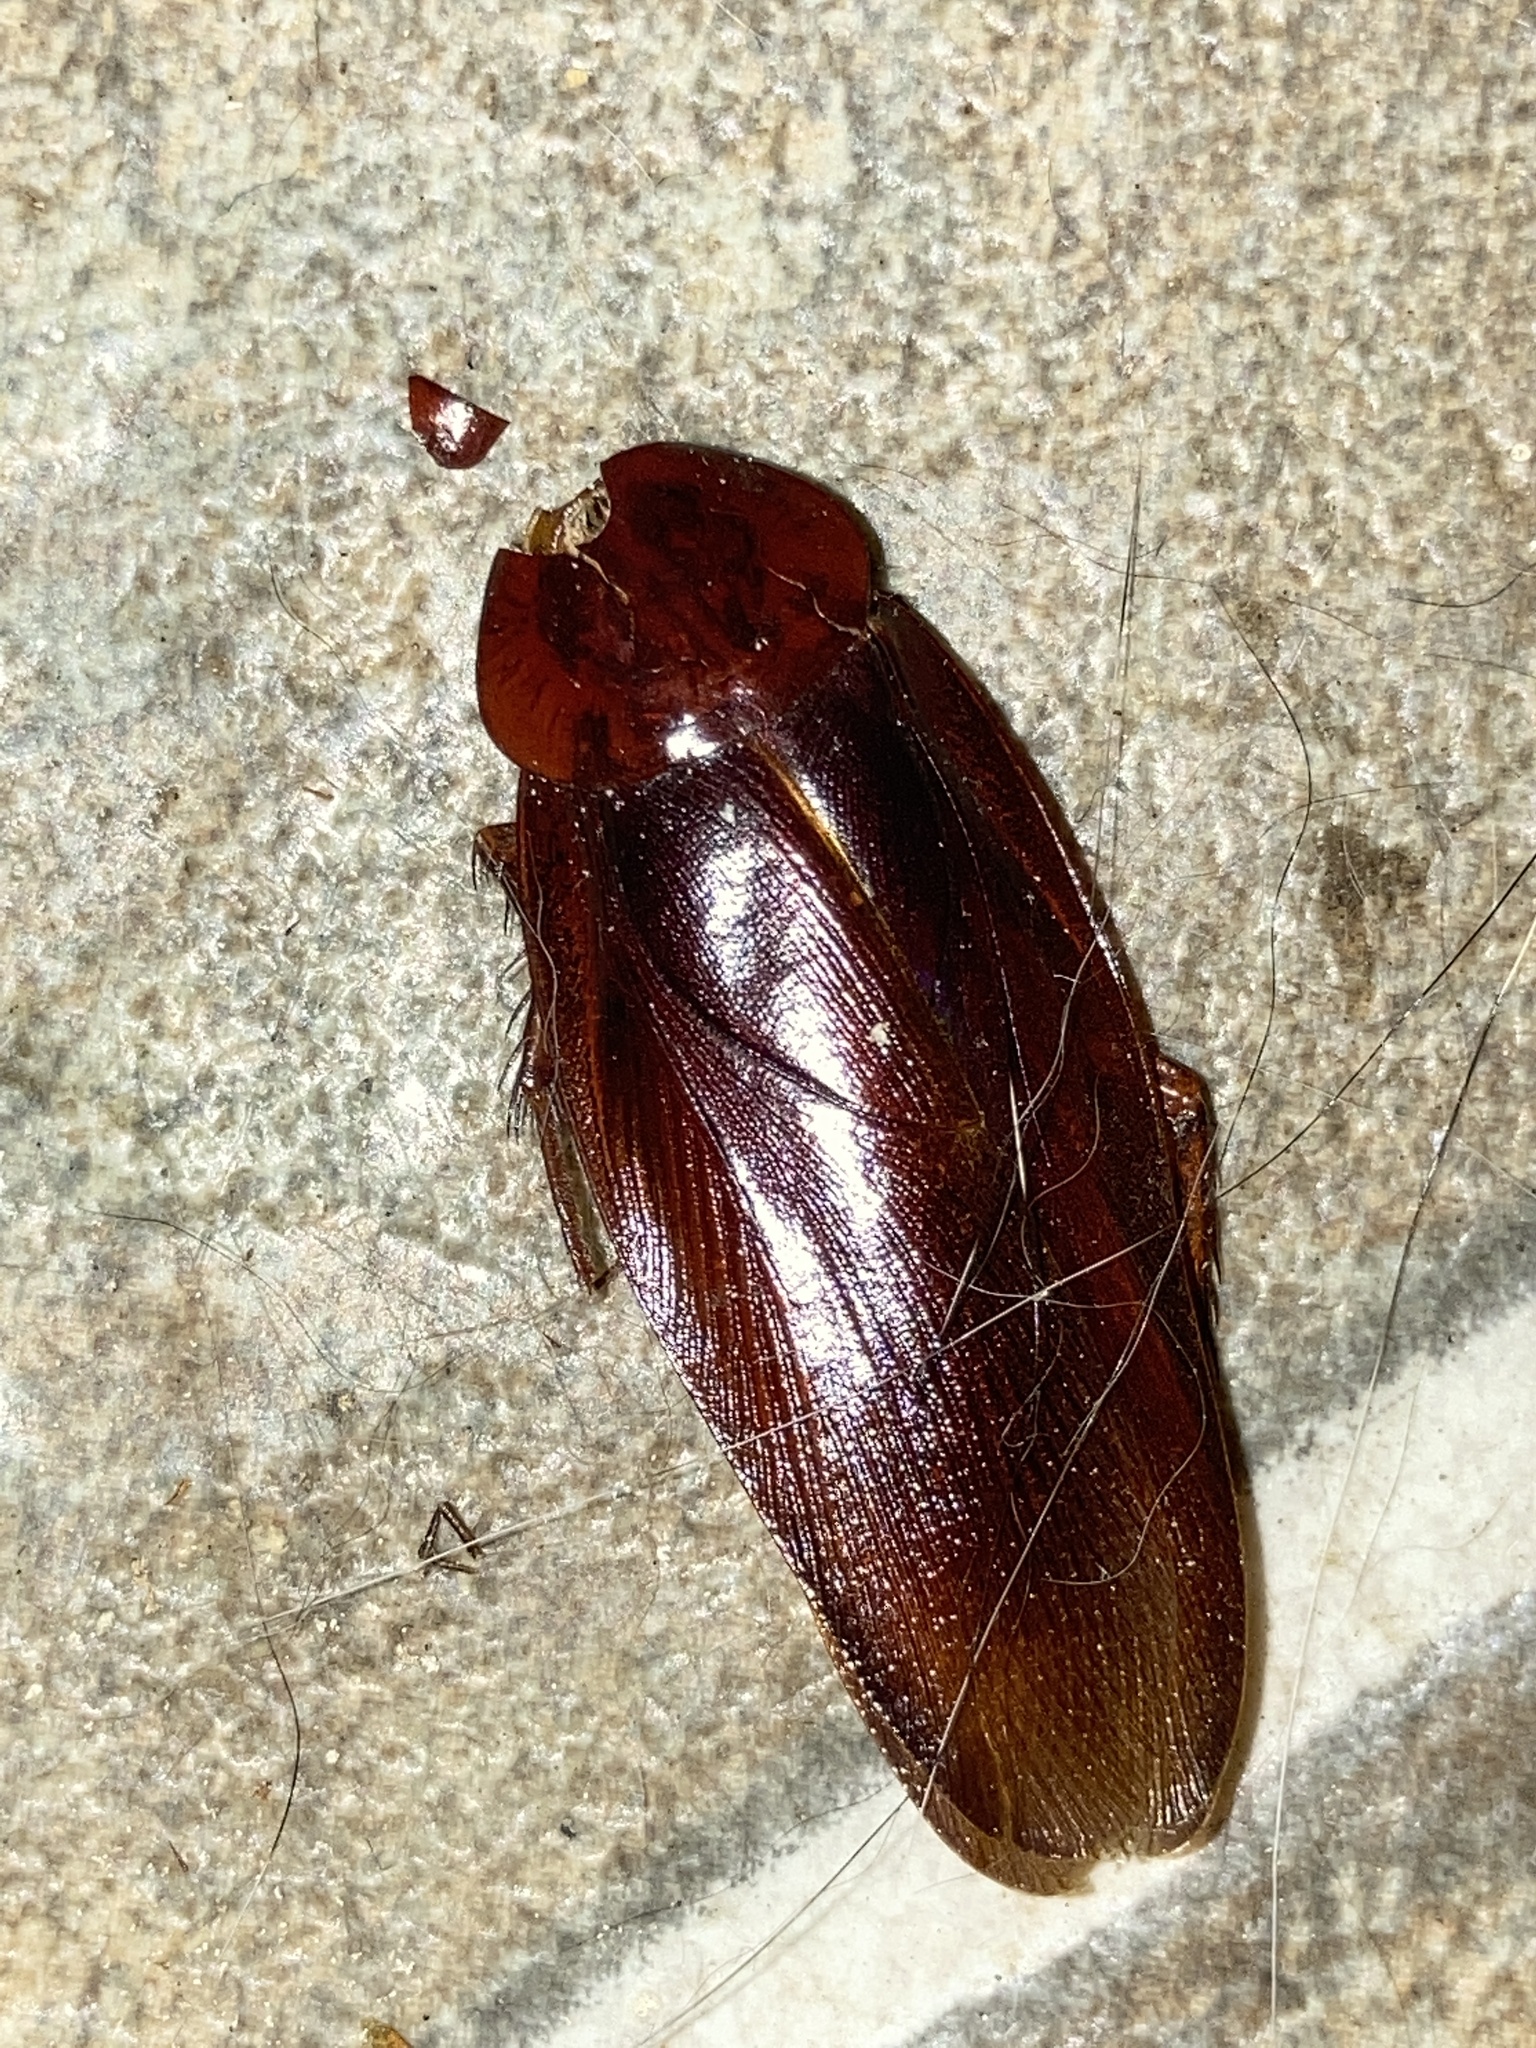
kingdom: Animalia
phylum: Arthropoda
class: Insecta
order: Blattodea
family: Blattidae
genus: Periplaneta
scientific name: Periplaneta fuliginosa
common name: Smokeybrown cockroad
